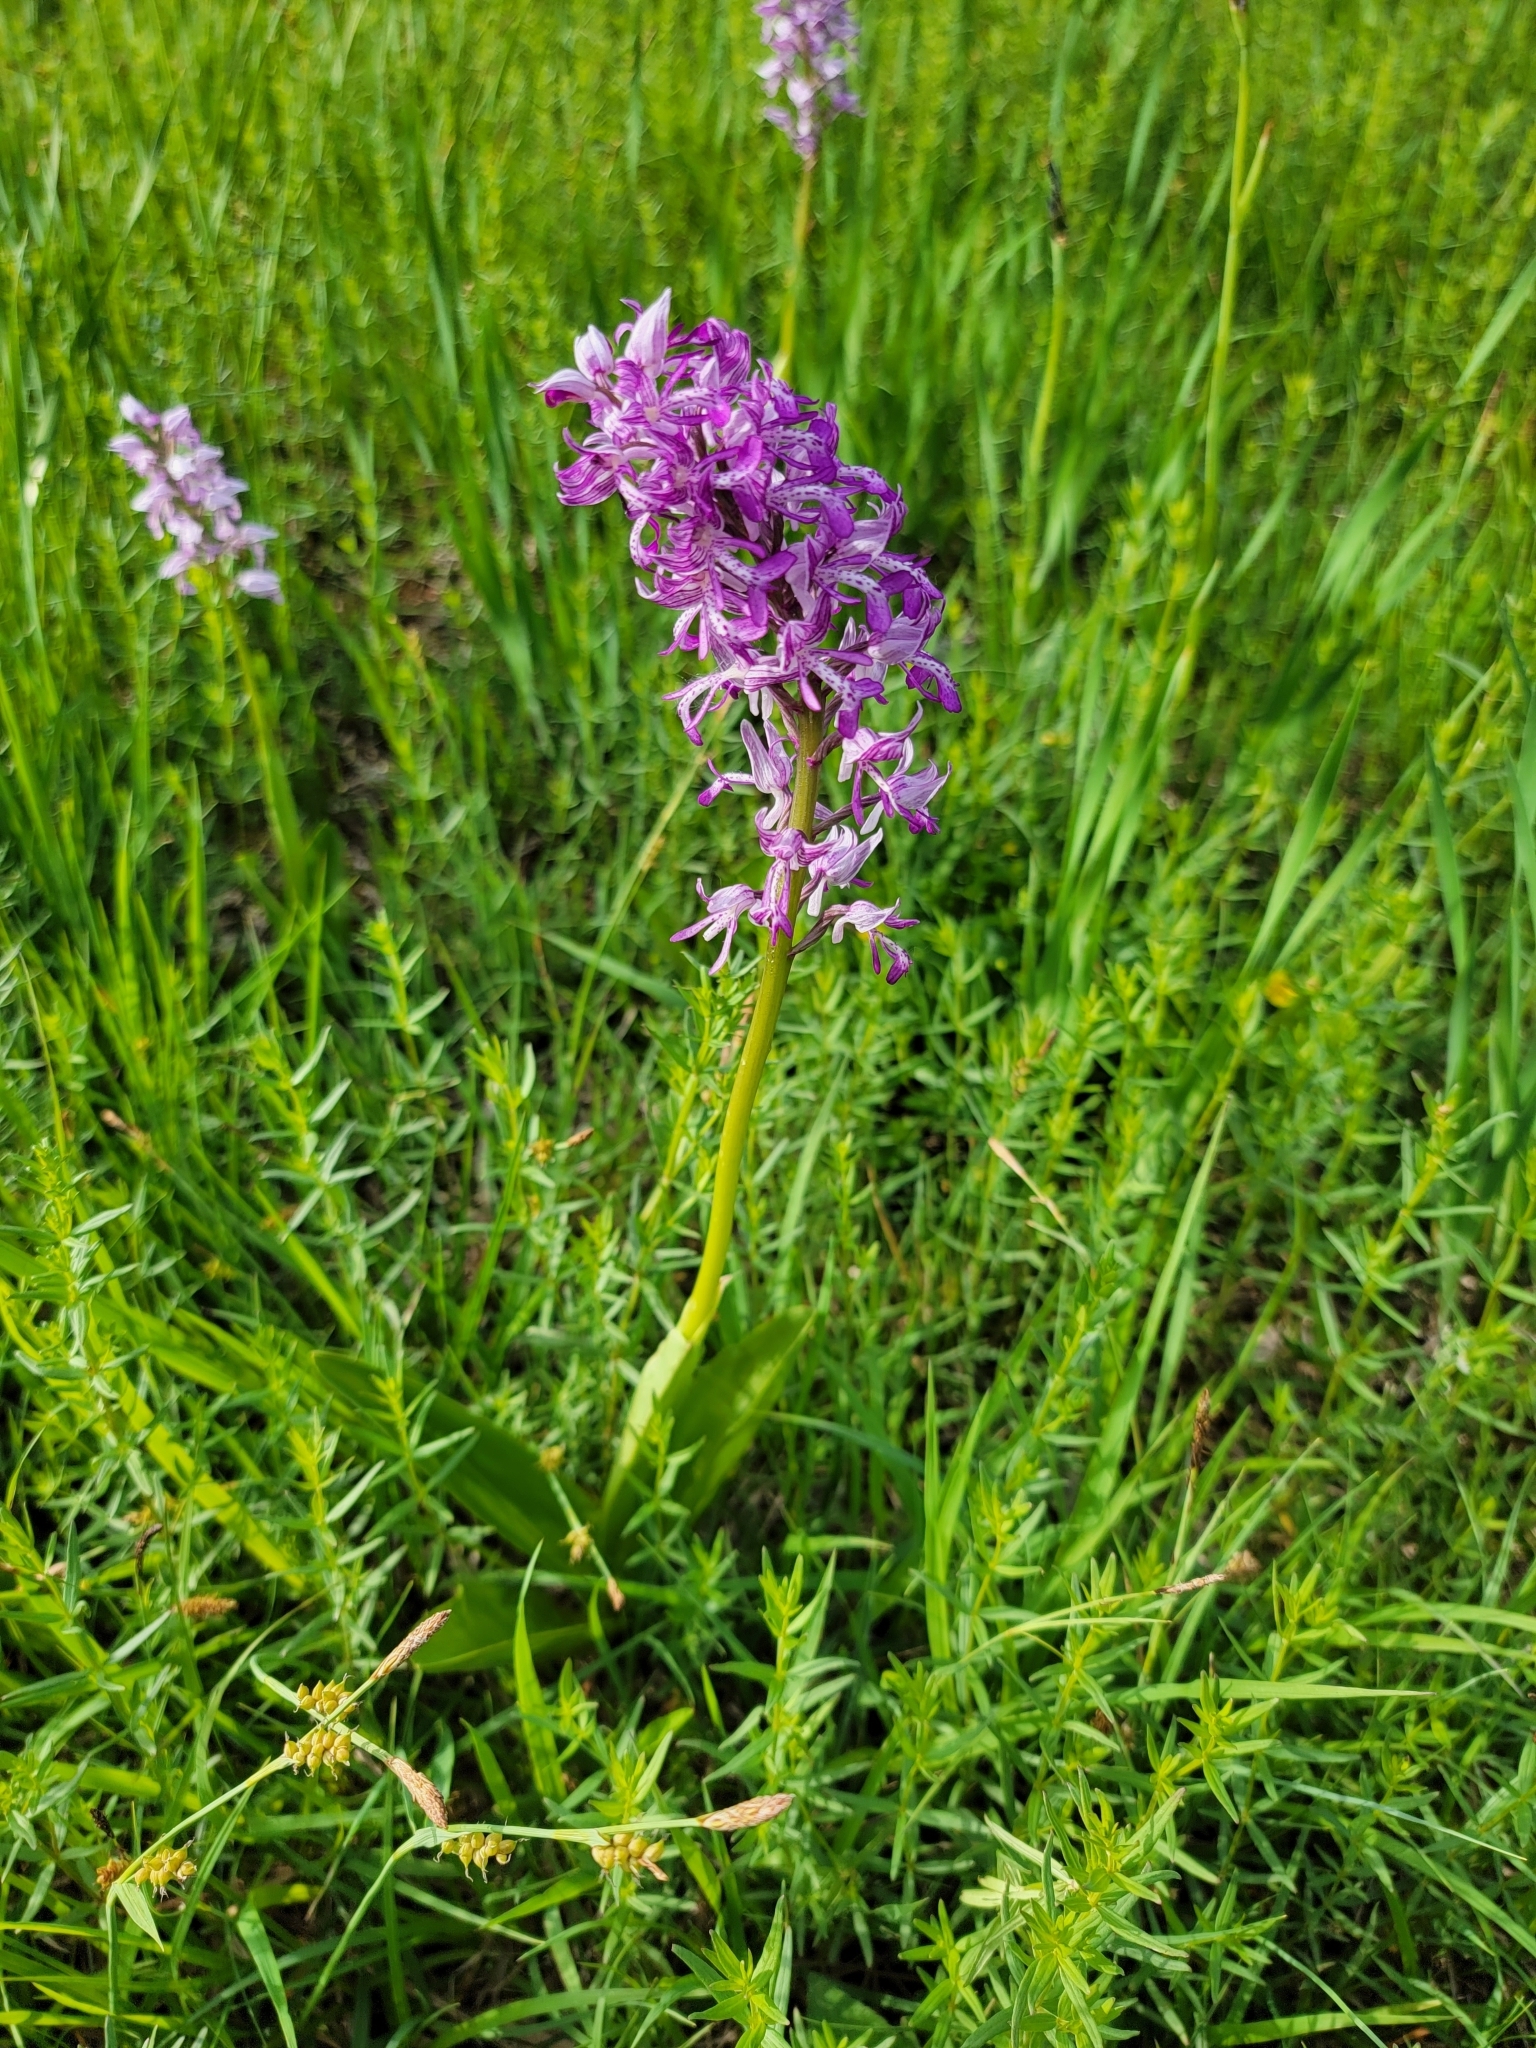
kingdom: Plantae
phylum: Tracheophyta
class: Liliopsida
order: Asparagales
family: Orchidaceae
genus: Orchis
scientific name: Orchis militaris
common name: Military orchid
